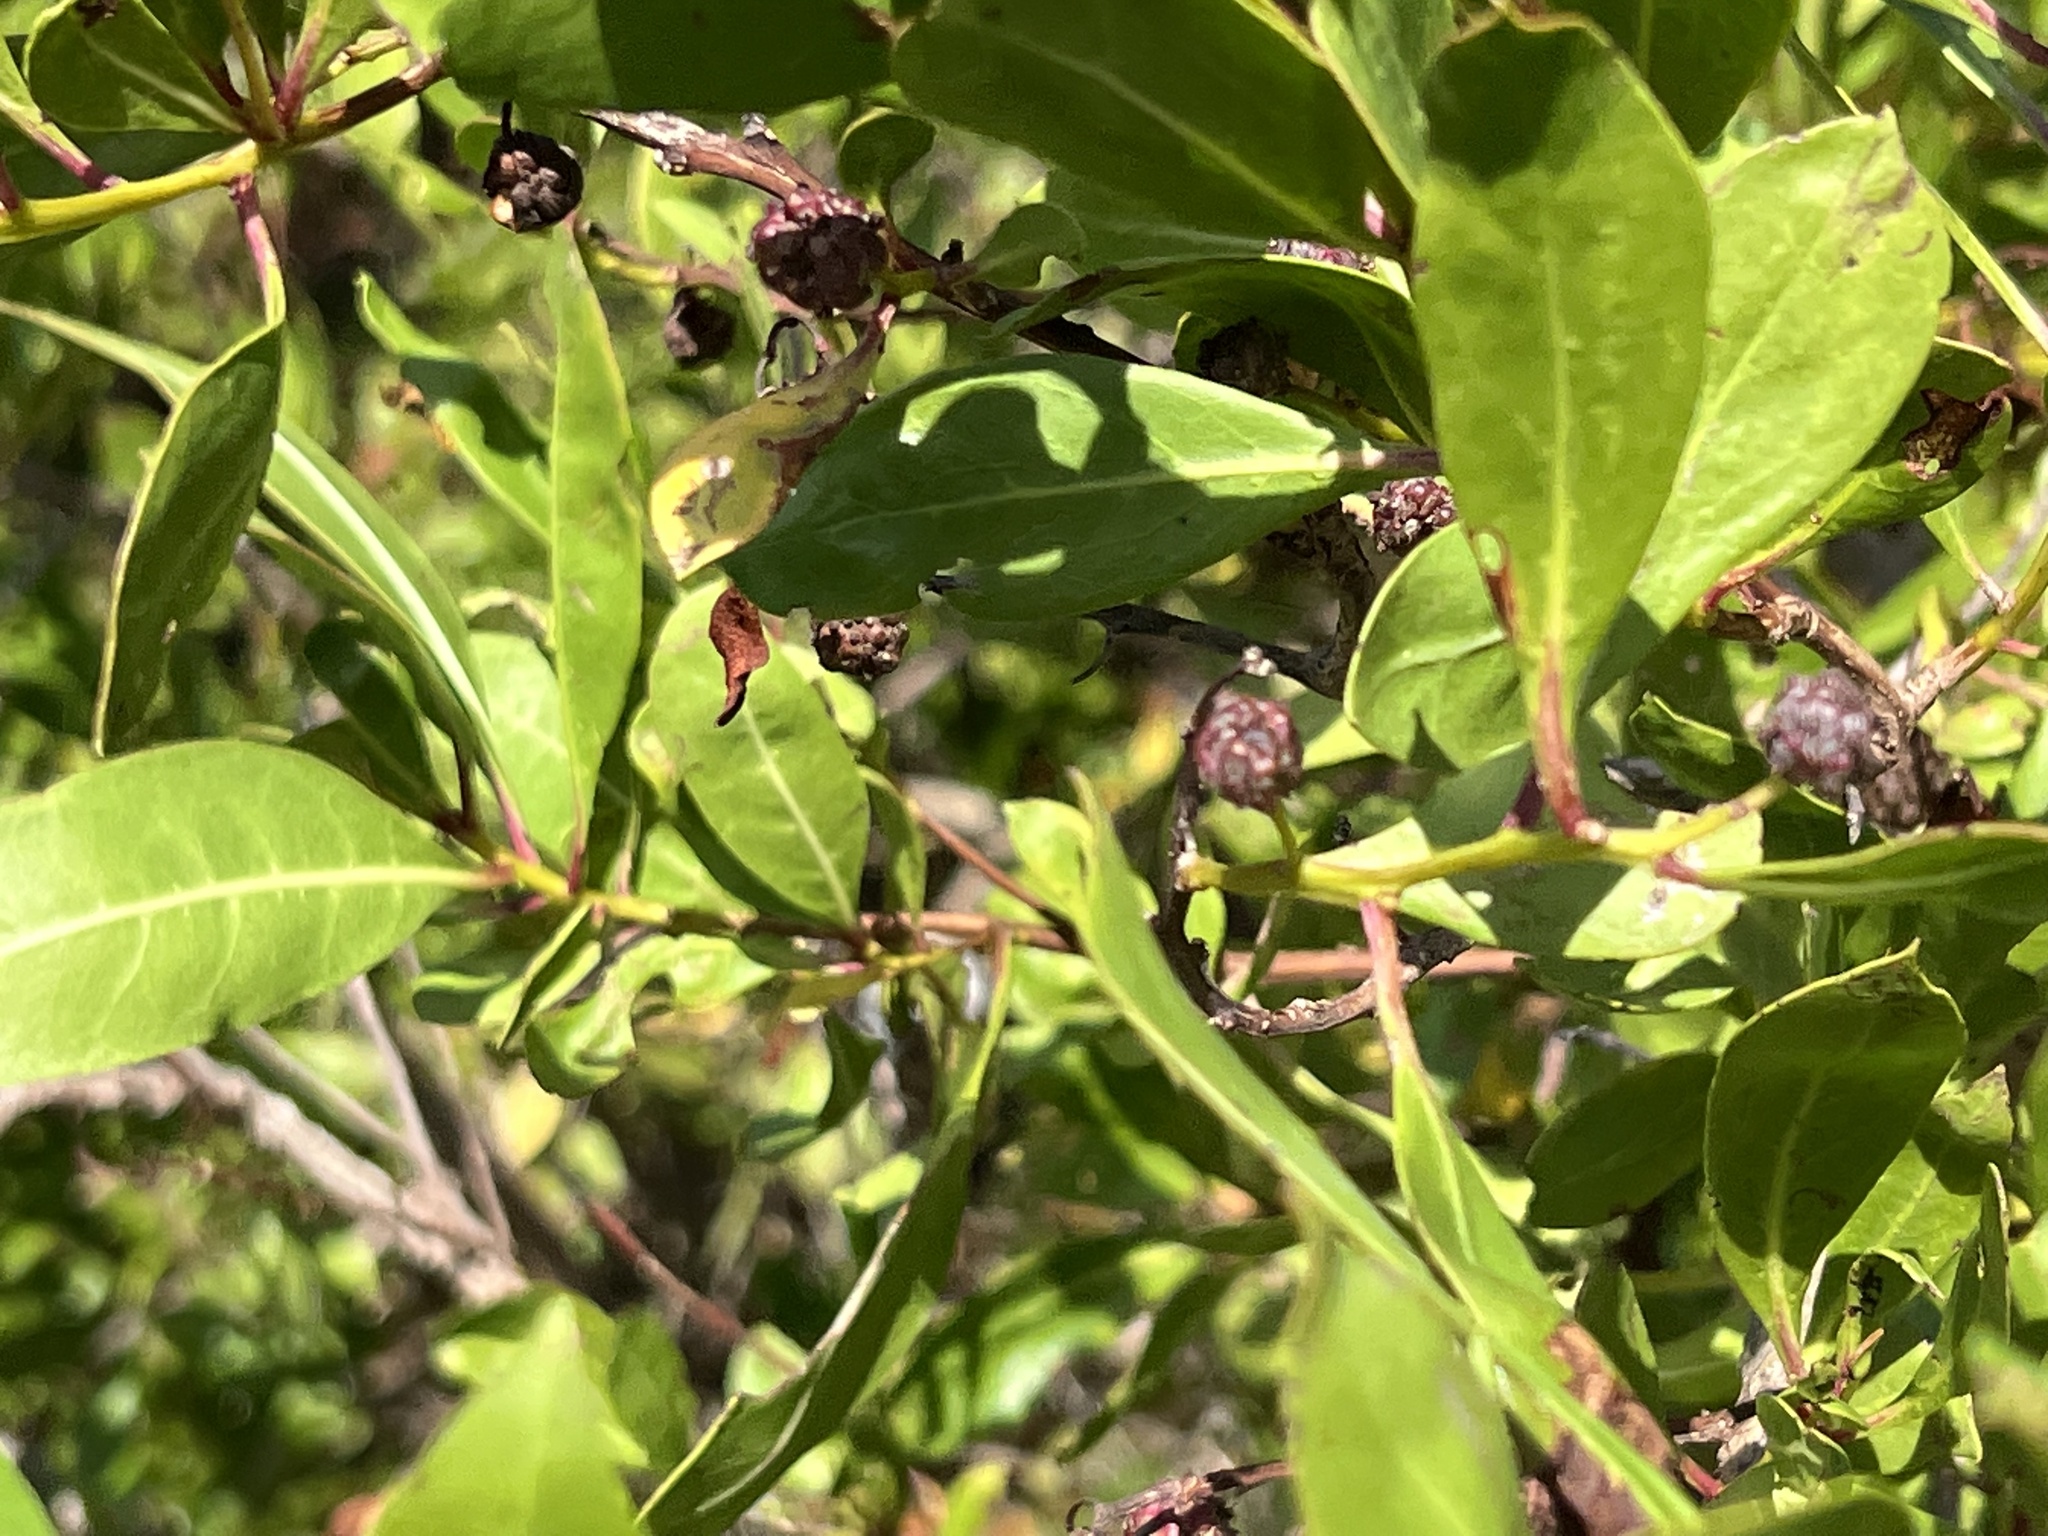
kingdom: Plantae
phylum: Tracheophyta
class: Magnoliopsida
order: Myrtales
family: Combretaceae
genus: Conocarpus
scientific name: Conocarpus erectus
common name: Button mangrove
